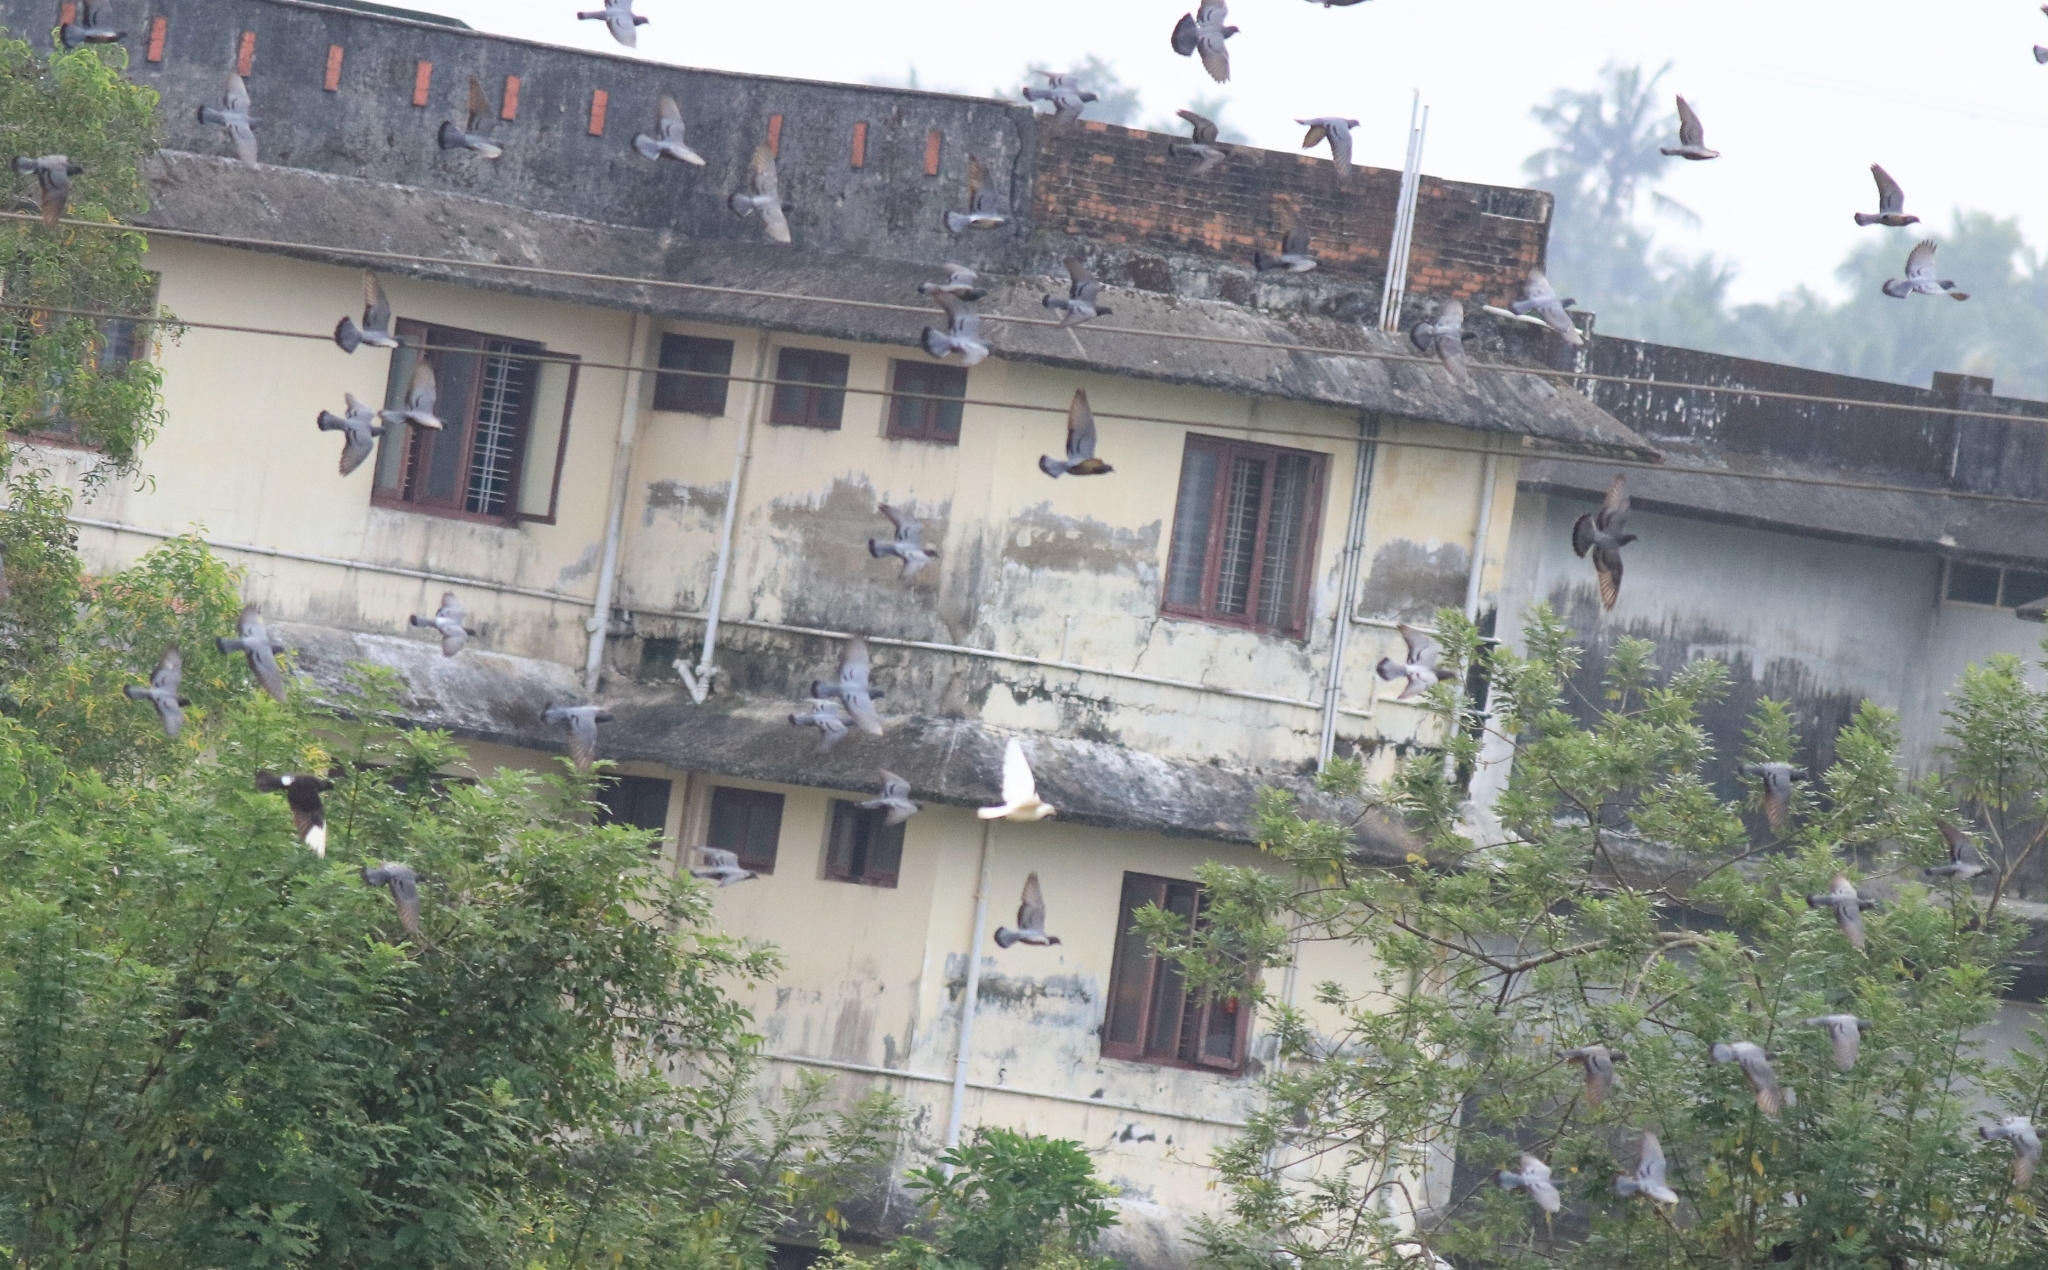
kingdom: Animalia
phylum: Chordata
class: Aves
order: Columbiformes
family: Columbidae
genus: Columba
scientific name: Columba livia
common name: Rock pigeon
